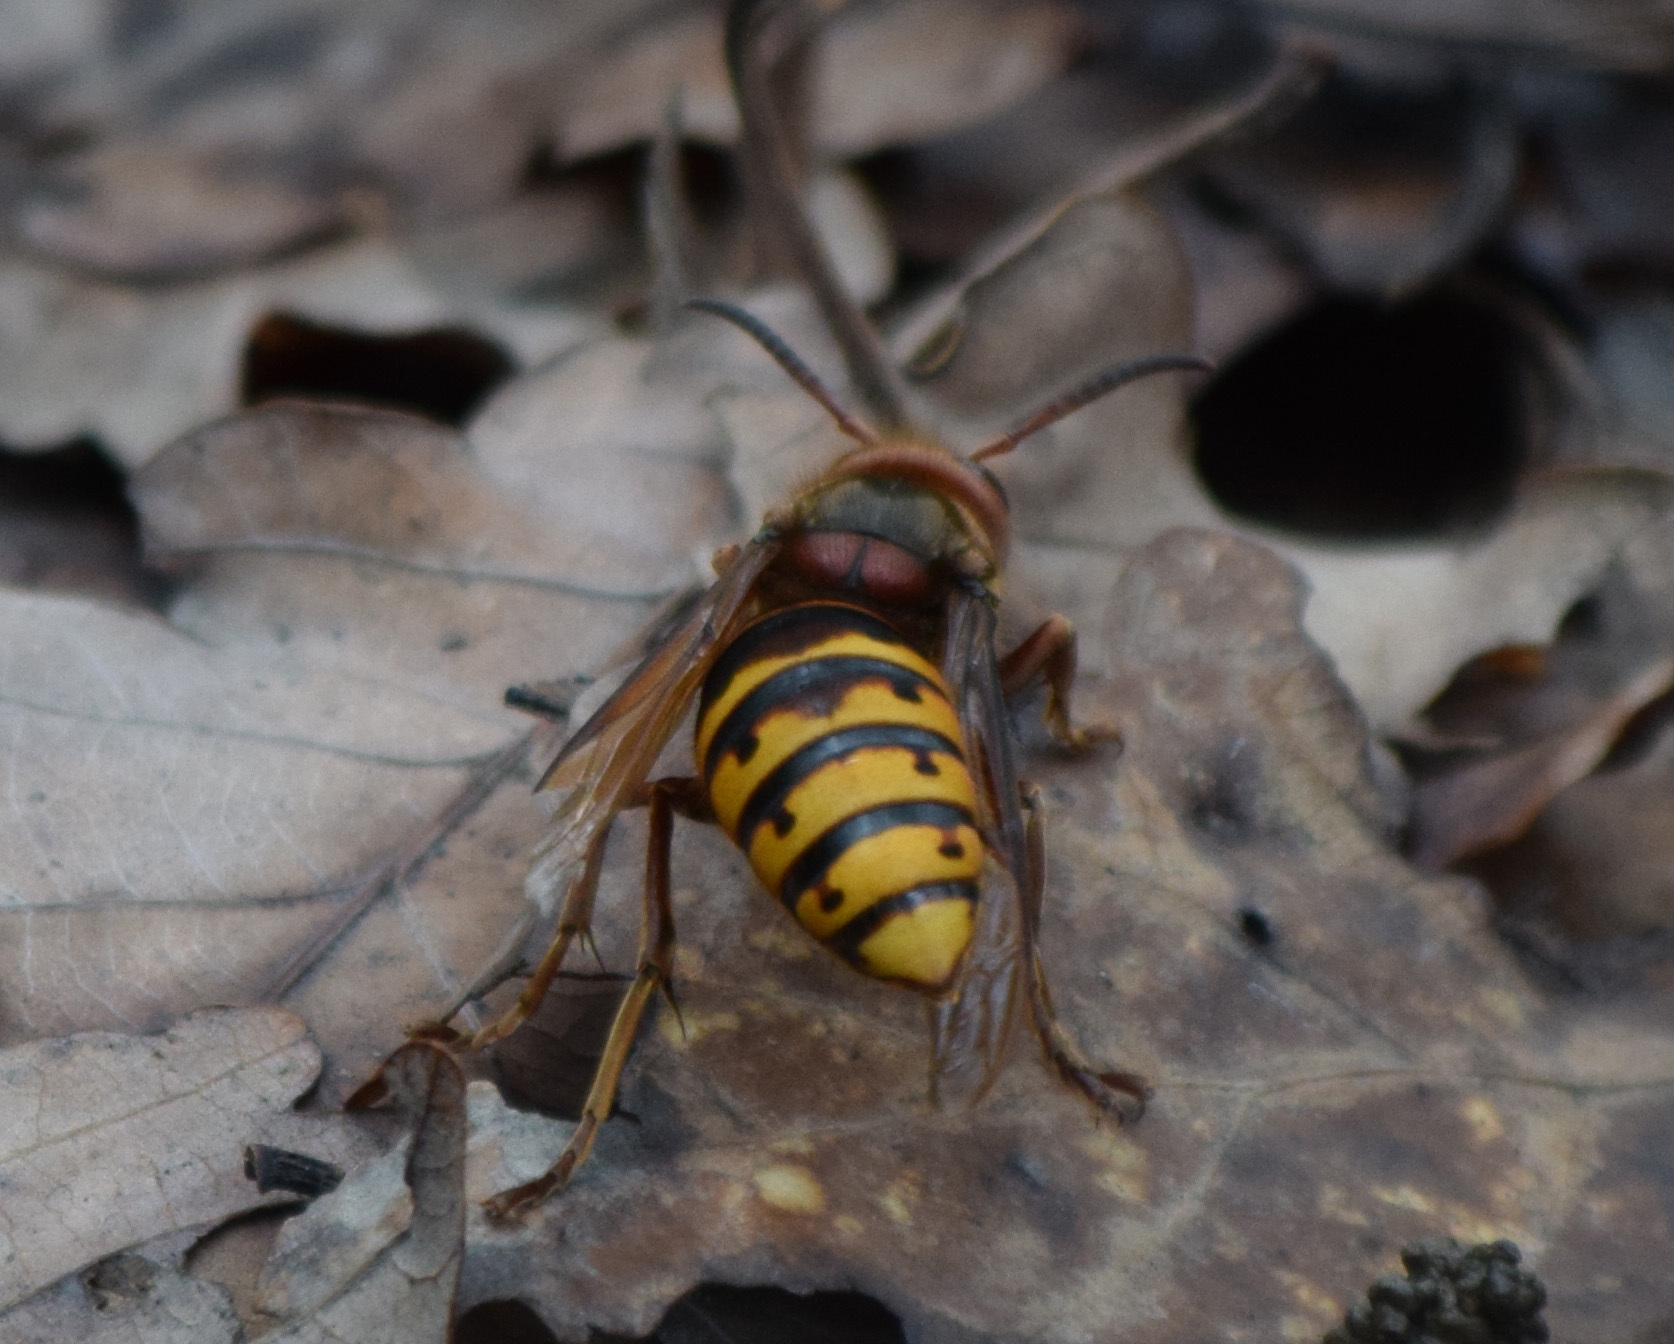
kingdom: Animalia
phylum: Arthropoda
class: Insecta
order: Hymenoptera
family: Vespidae
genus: Vespa
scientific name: Vespa crabro
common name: Hornet
